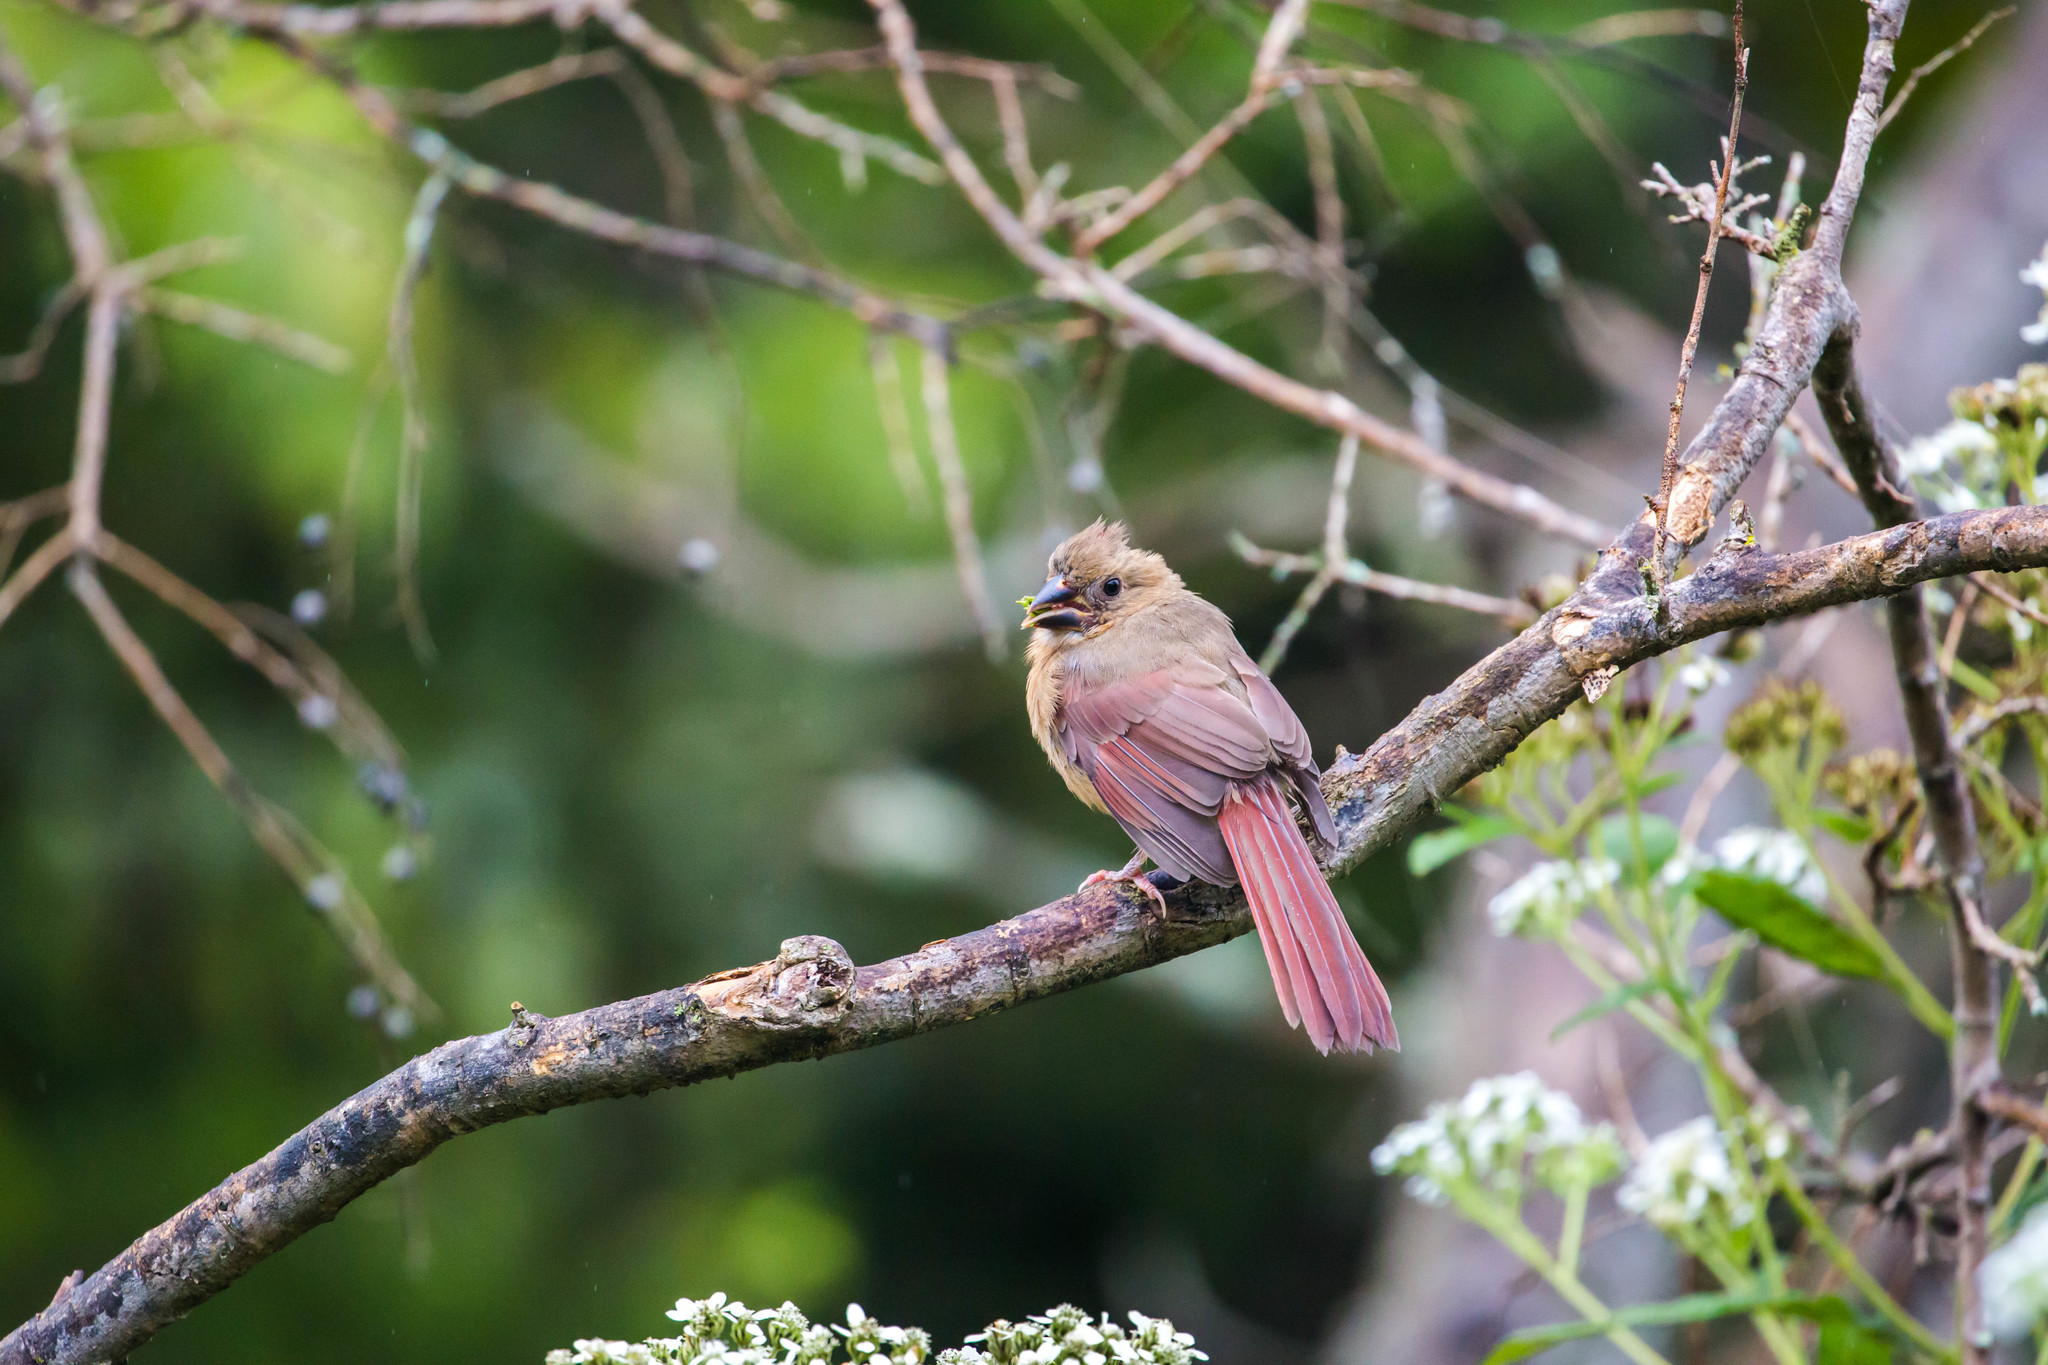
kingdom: Animalia
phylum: Chordata
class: Aves
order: Passeriformes
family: Cardinalidae
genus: Cardinalis
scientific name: Cardinalis cardinalis
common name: Northern cardinal
